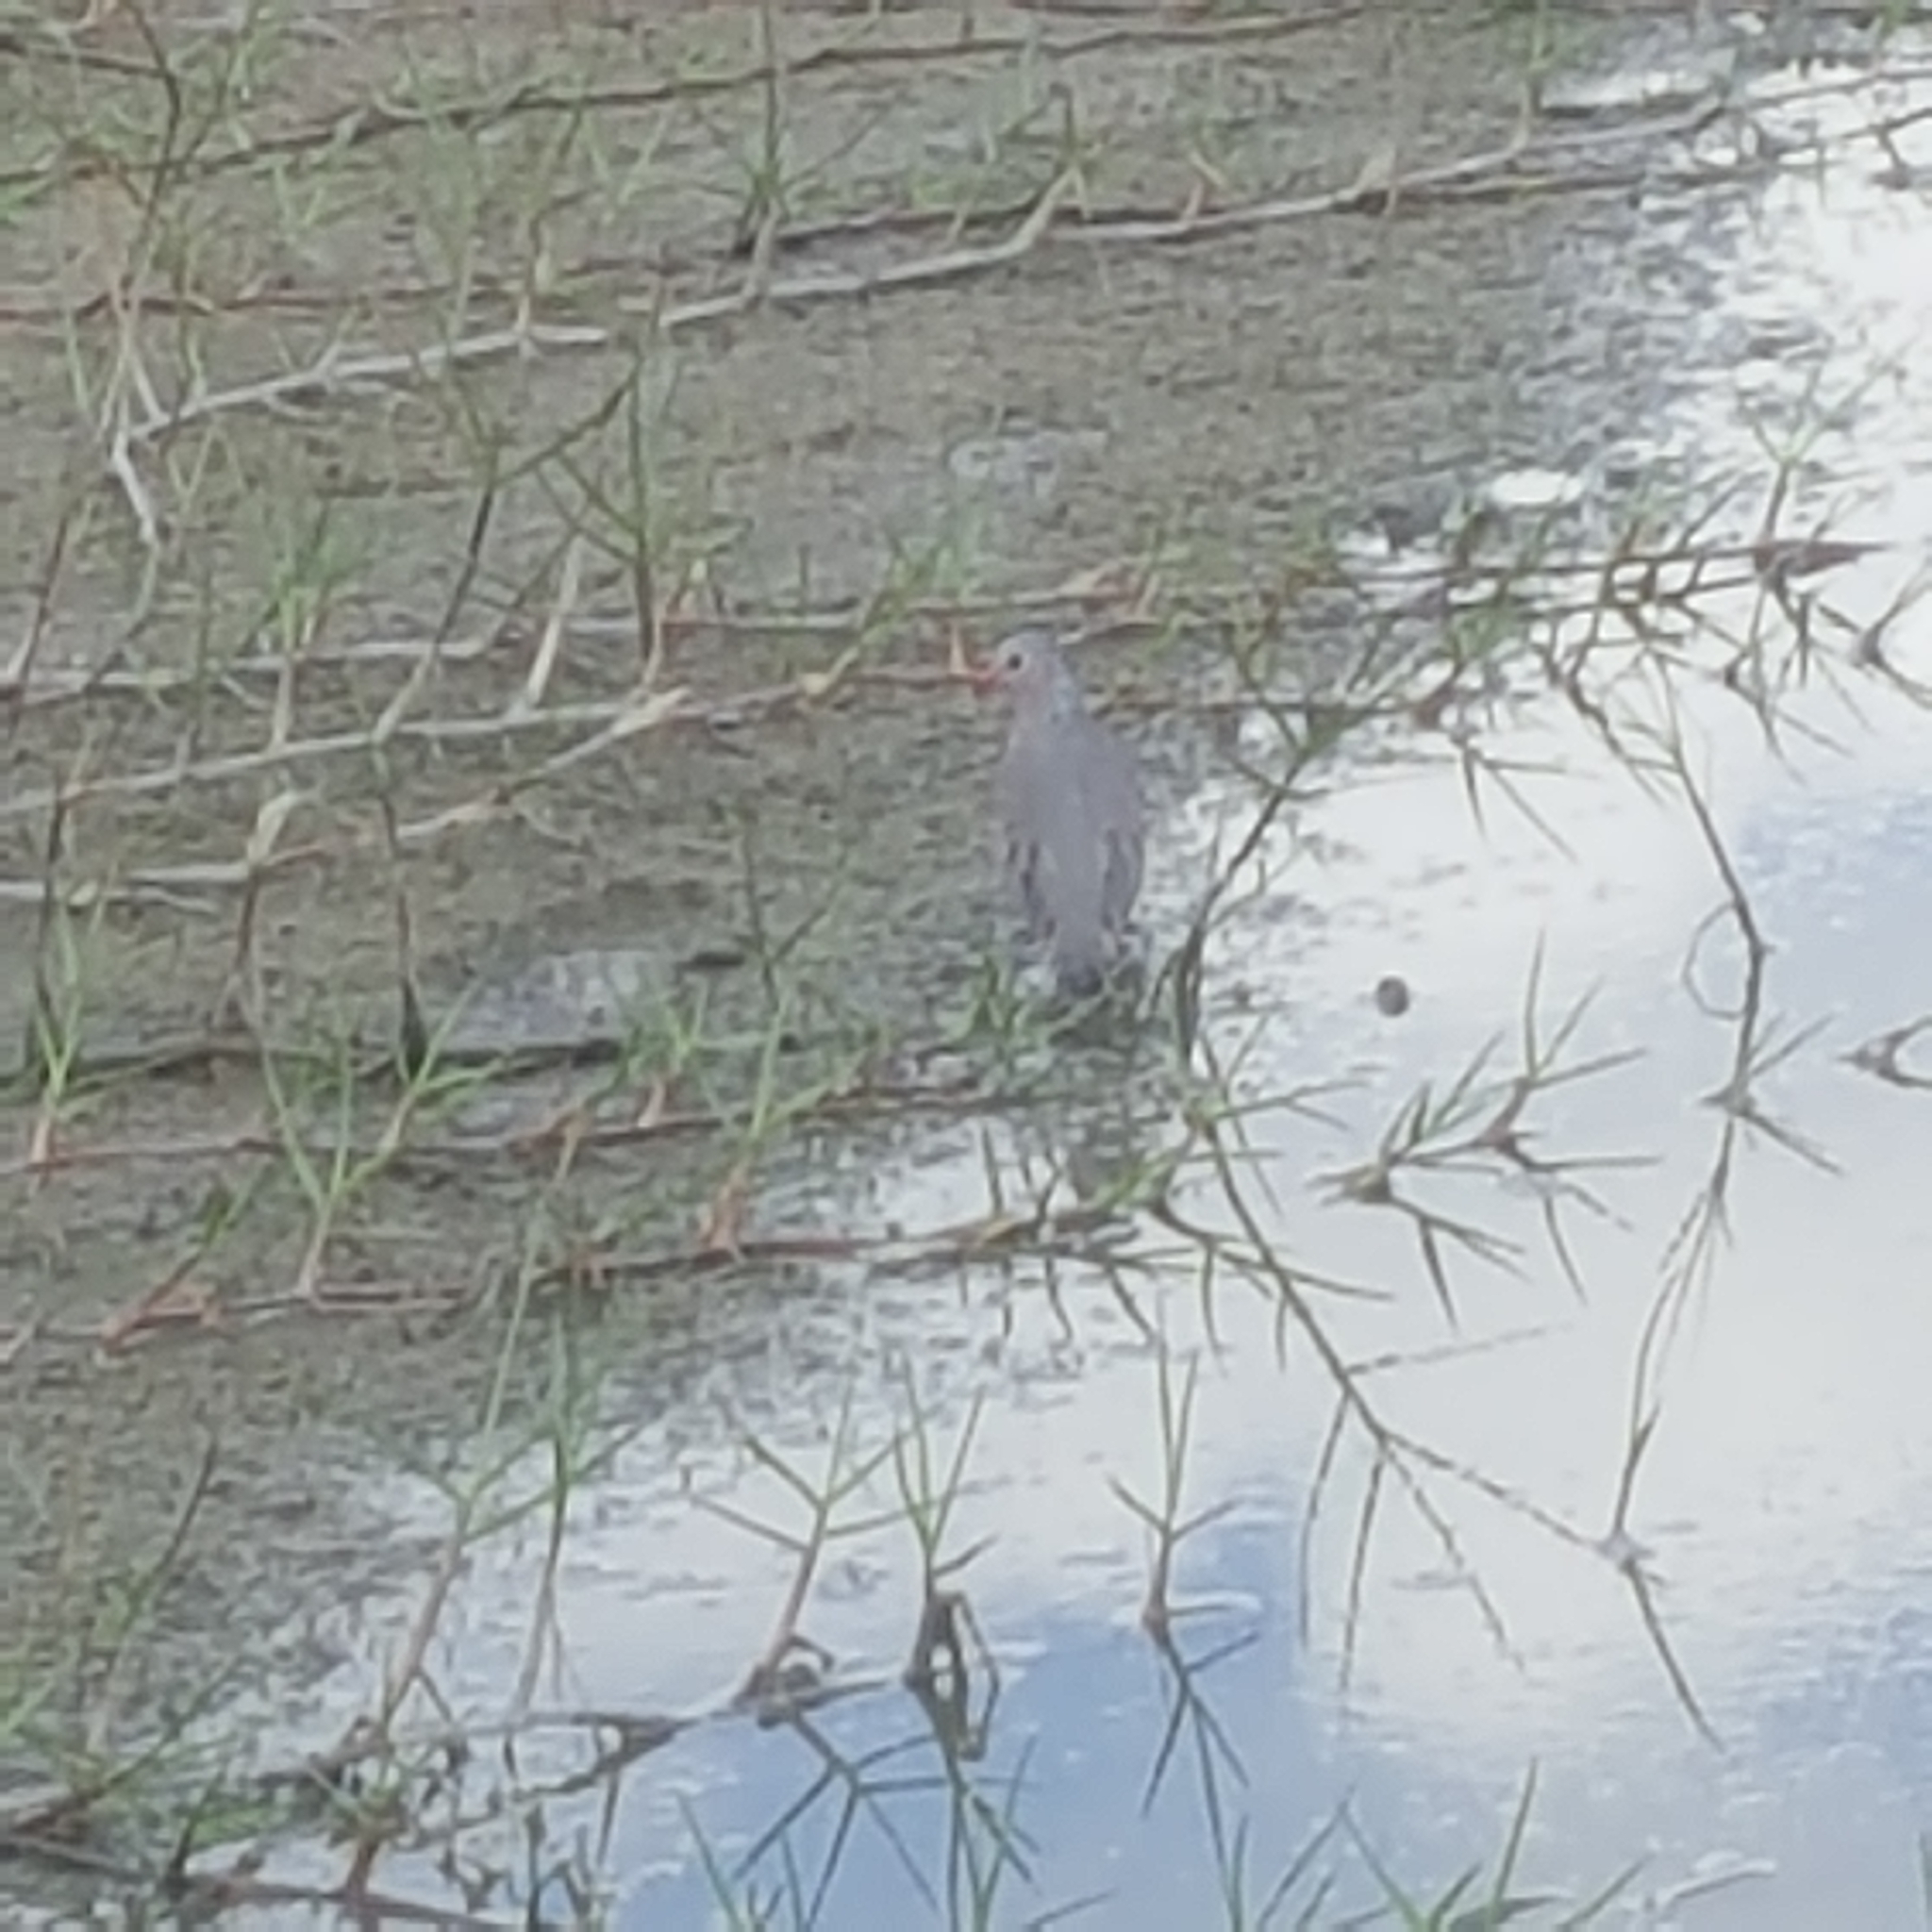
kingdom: Animalia
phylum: Chordata
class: Aves
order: Columbiformes
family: Columbidae
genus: Columbina
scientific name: Columbina passerina
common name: Common ground-dove
